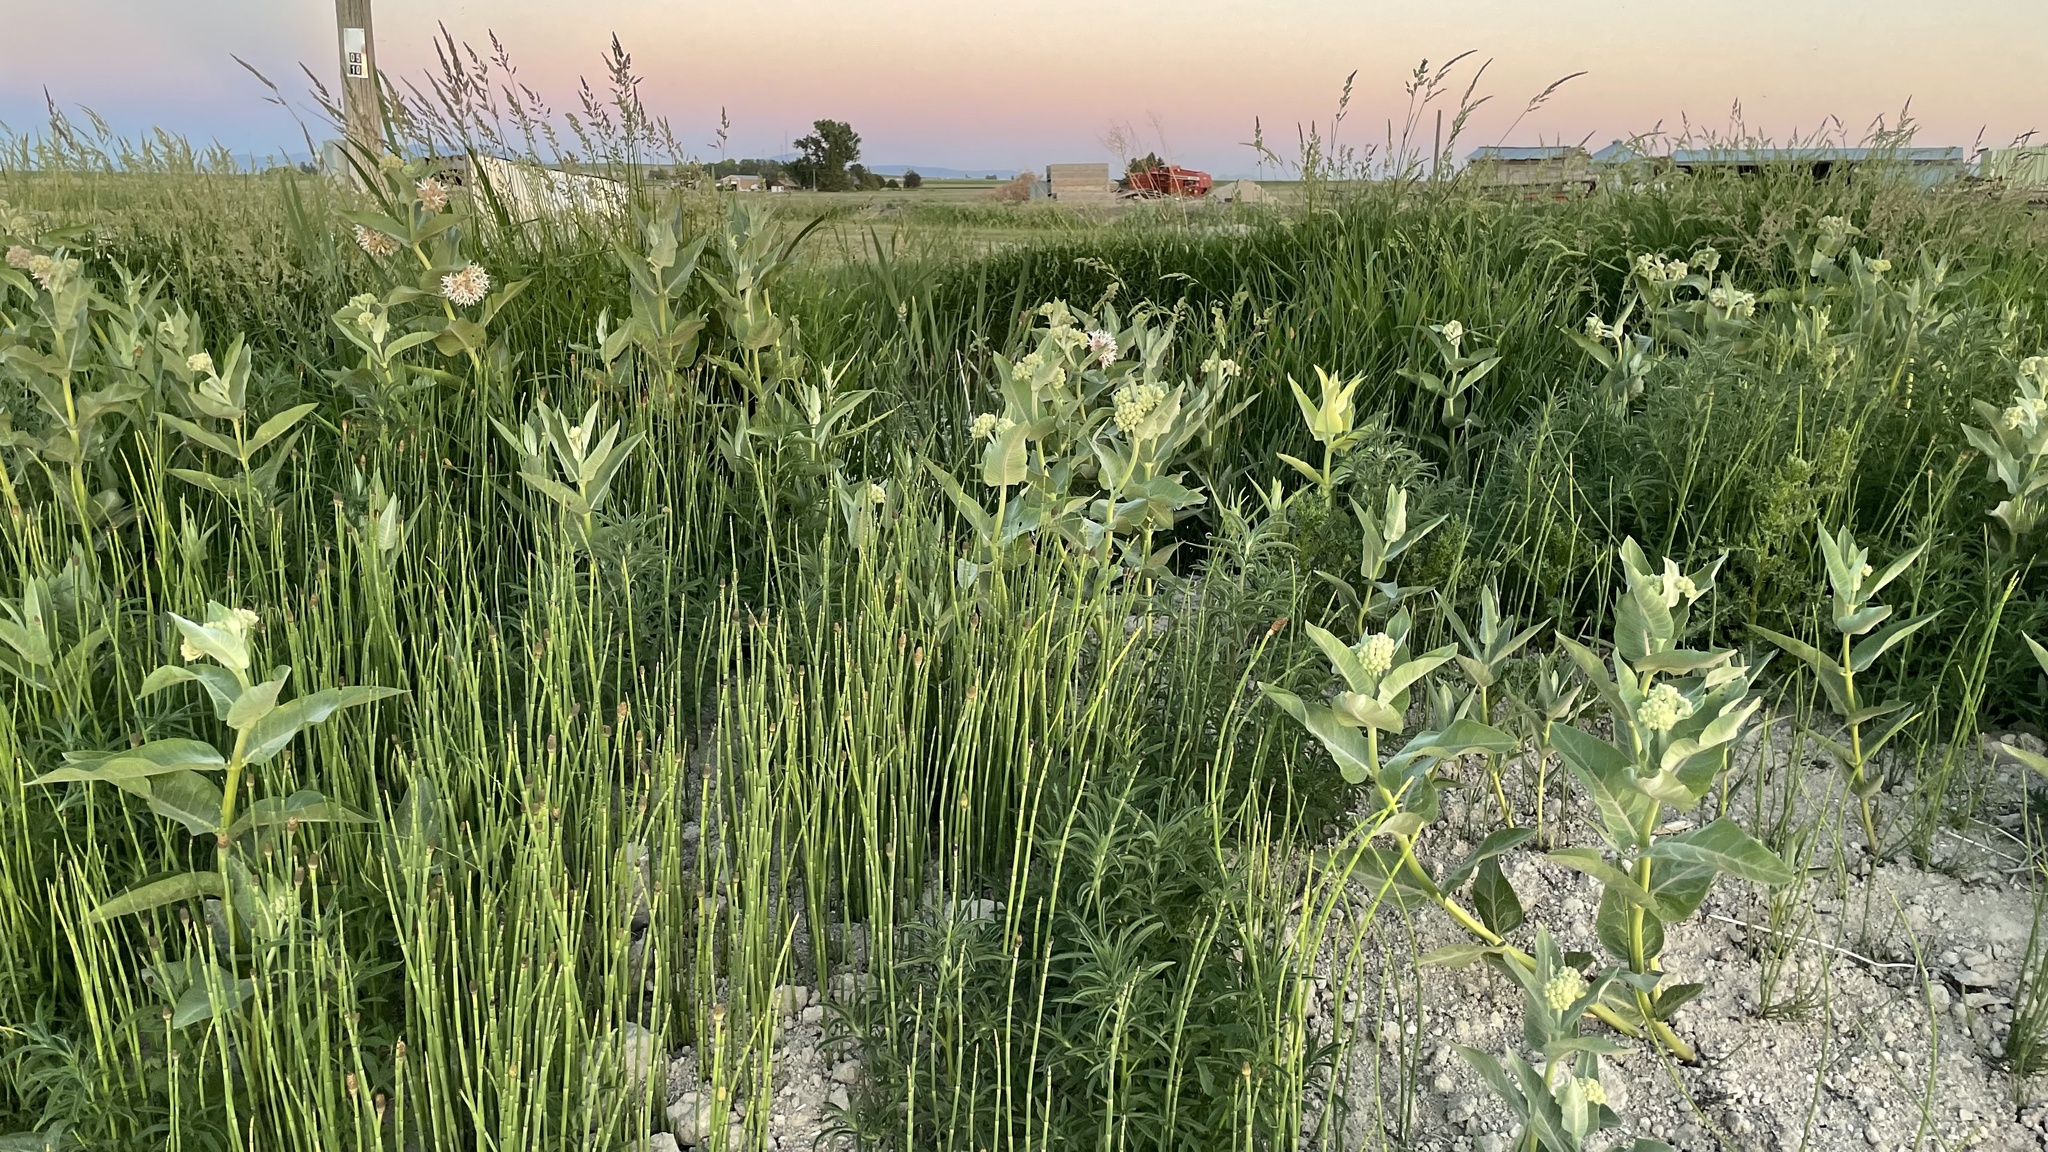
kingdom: Plantae
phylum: Tracheophyta
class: Magnoliopsida
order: Gentianales
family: Apocynaceae
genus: Asclepias
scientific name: Asclepias speciosa
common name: Showy milkweed
